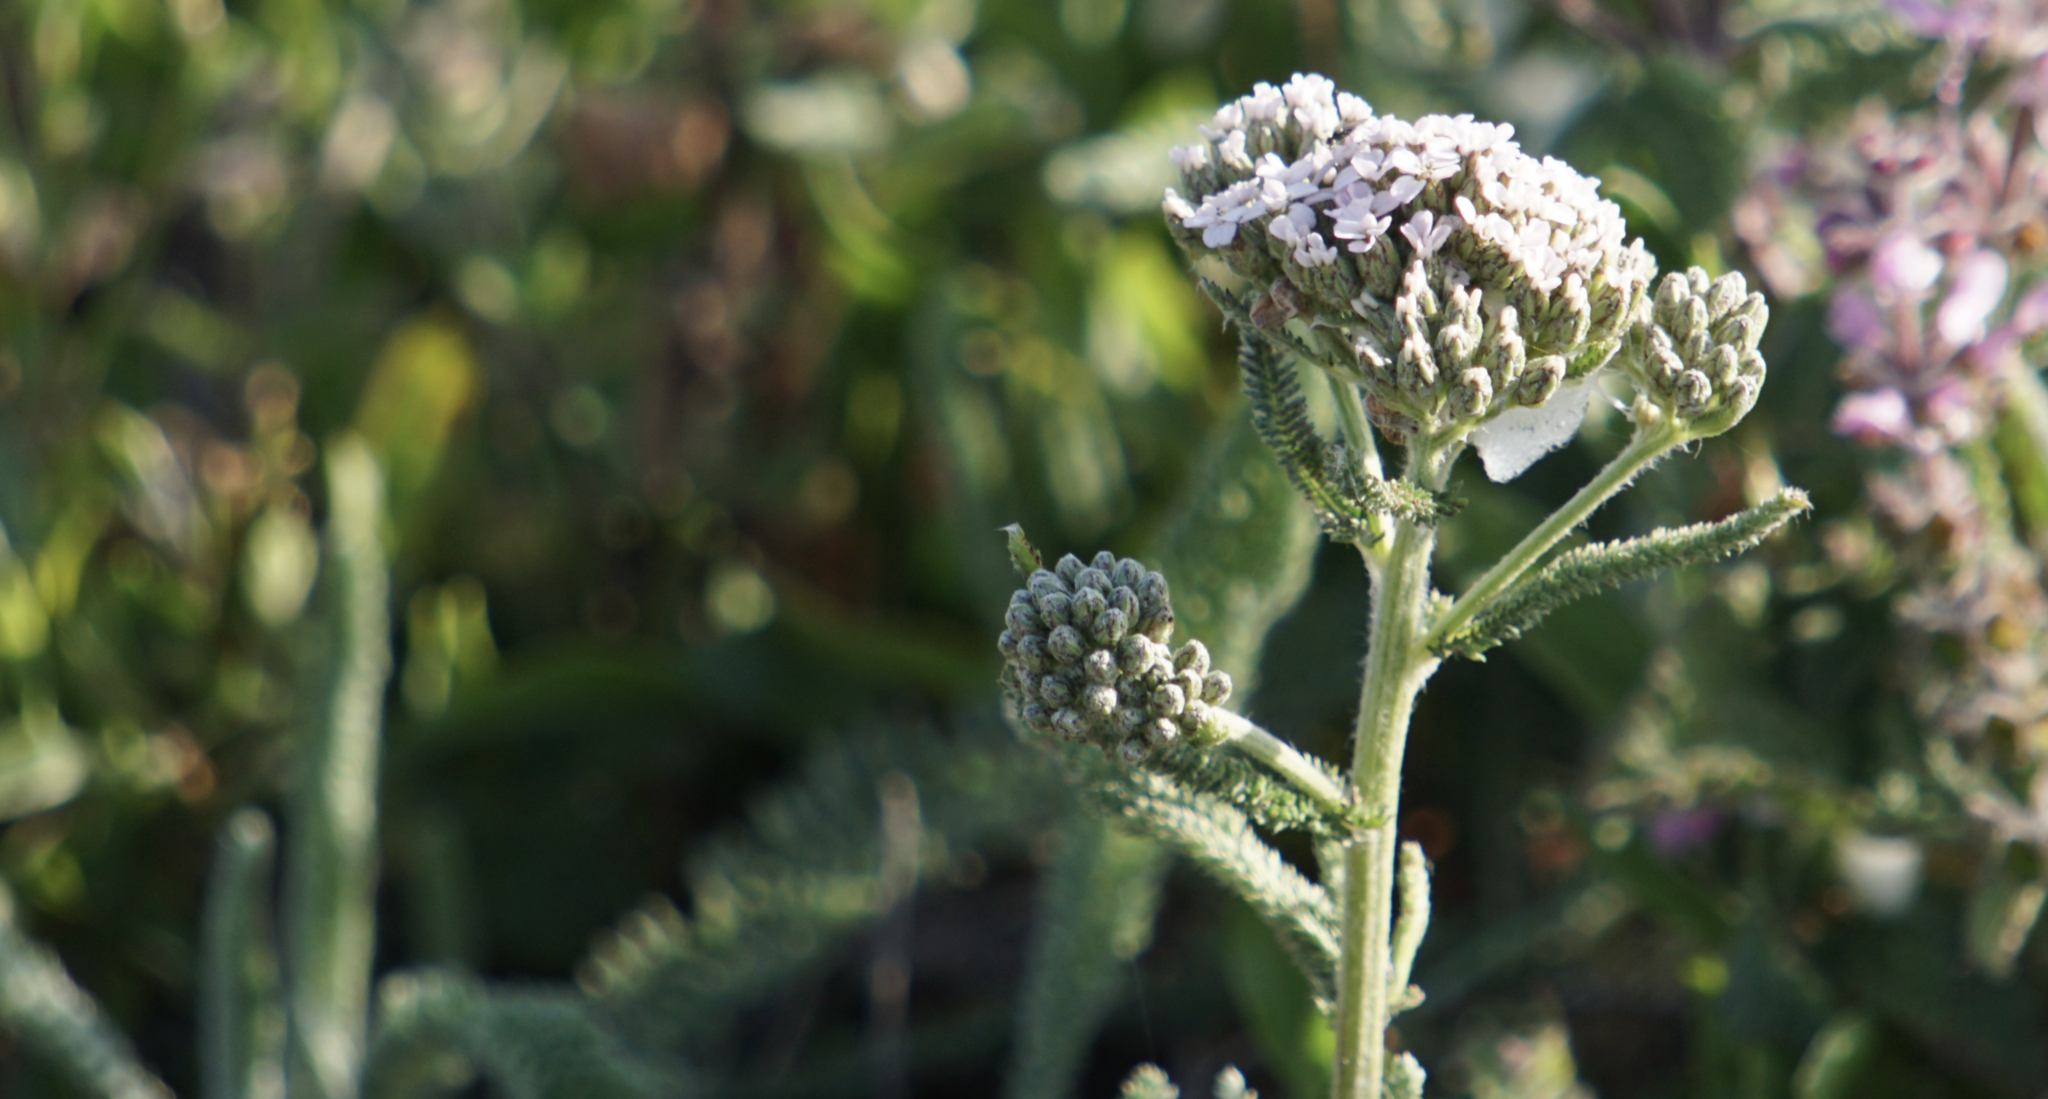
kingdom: Plantae
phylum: Tracheophyta
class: Magnoliopsida
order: Asterales
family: Asteraceae
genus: Achillea
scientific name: Achillea millefolium
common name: Yarrow
